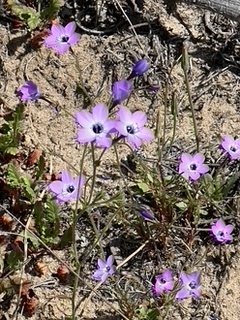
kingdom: Plantae
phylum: Tracheophyta
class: Magnoliopsida
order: Ericales
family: Polemoniaceae
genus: Gilia
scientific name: Gilia tenuiflora
